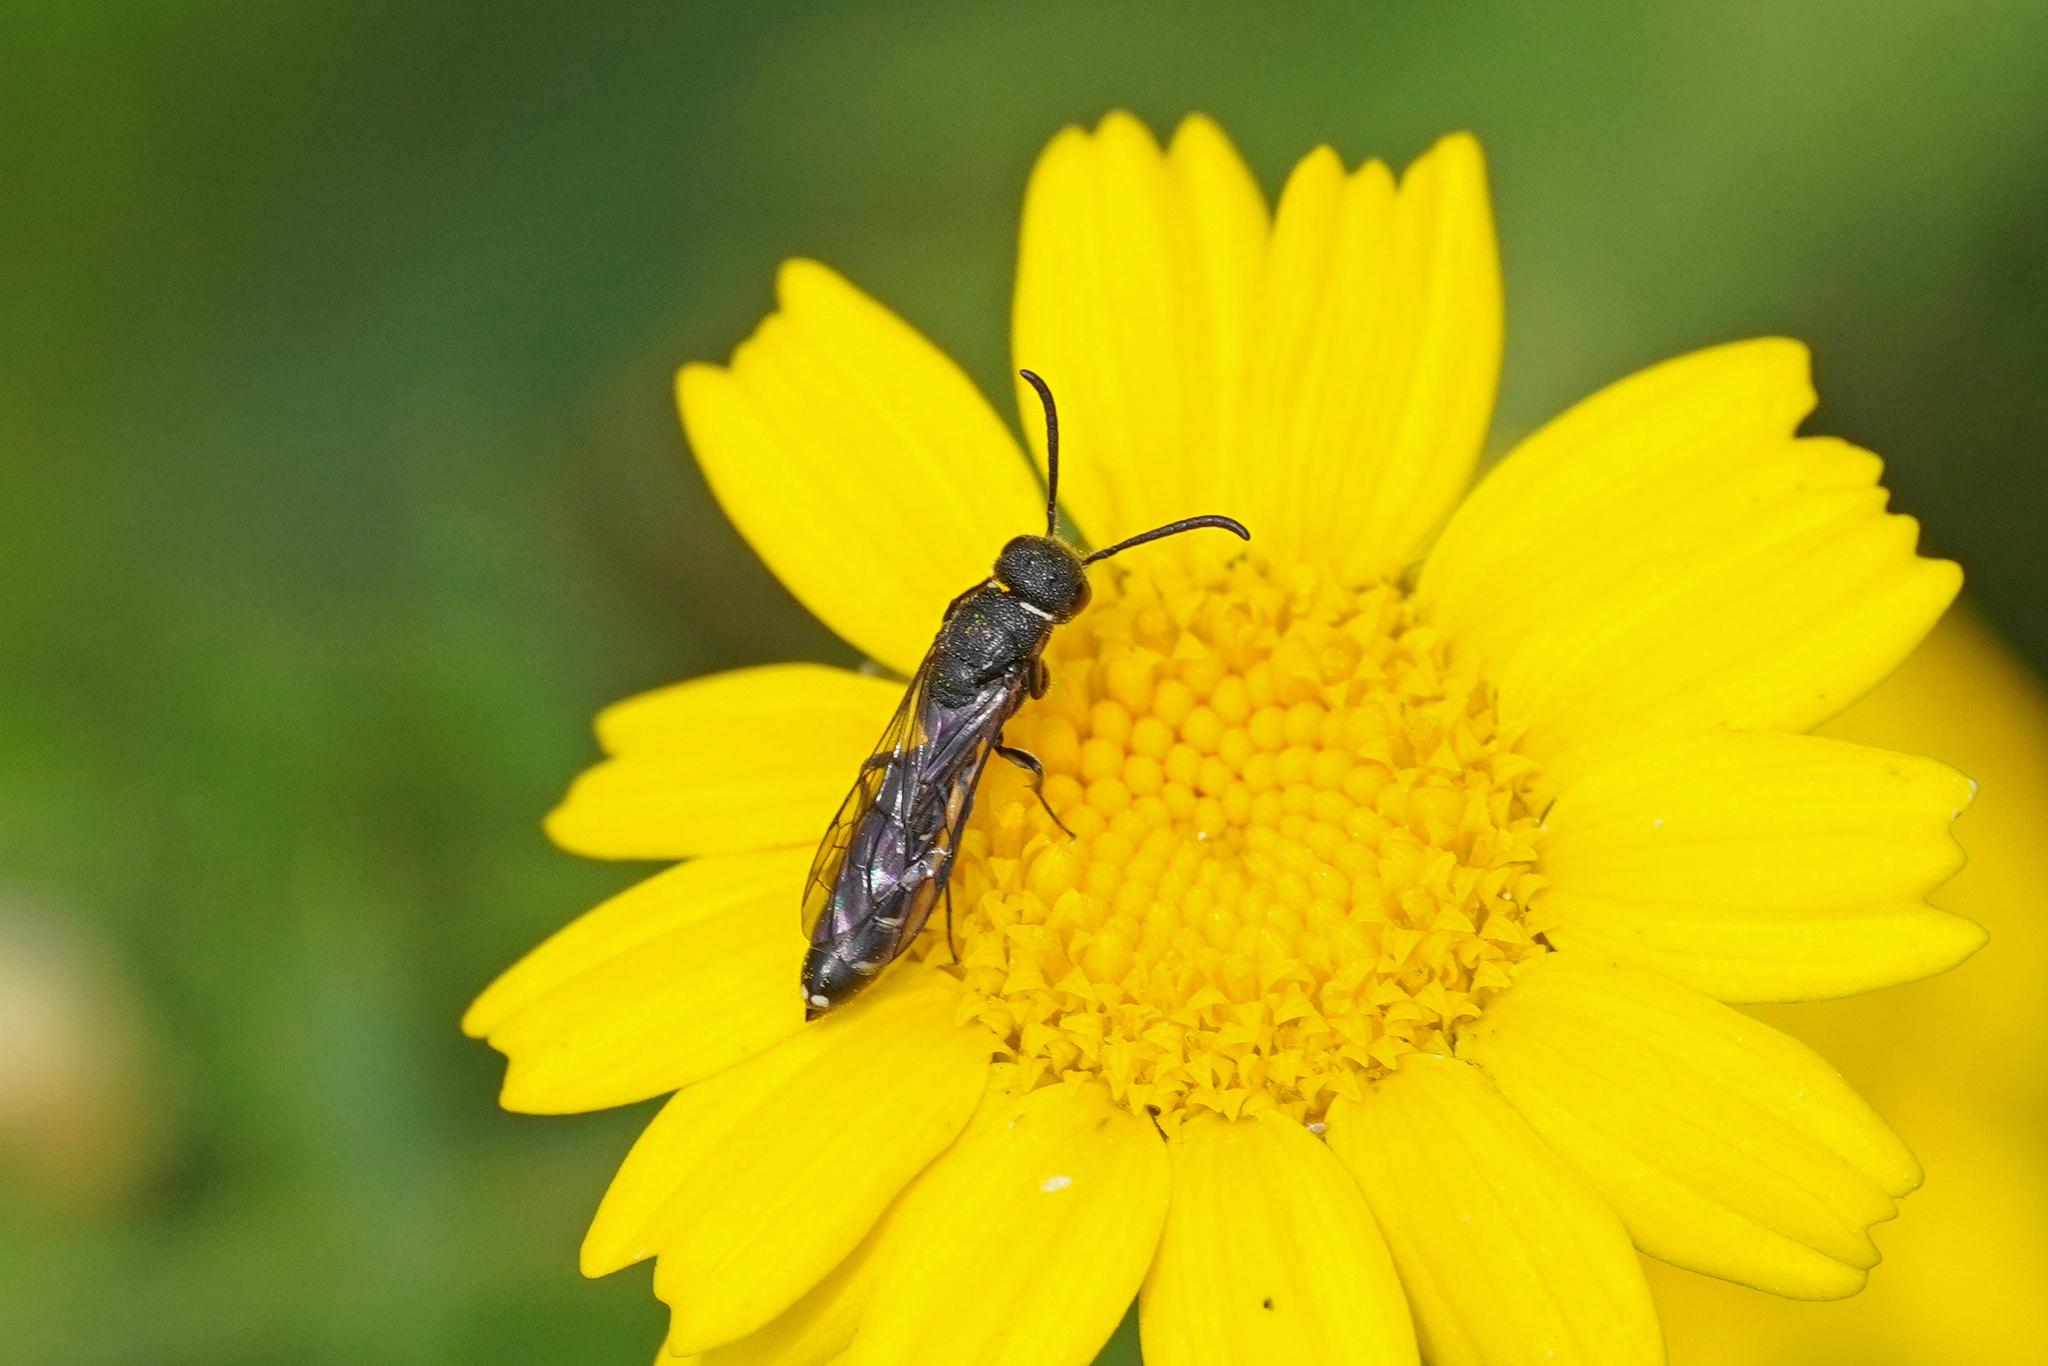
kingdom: Animalia
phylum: Arthropoda
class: Insecta
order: Hymenoptera
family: Sapygidae
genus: Sapygina
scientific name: Sapygina decemguttata
